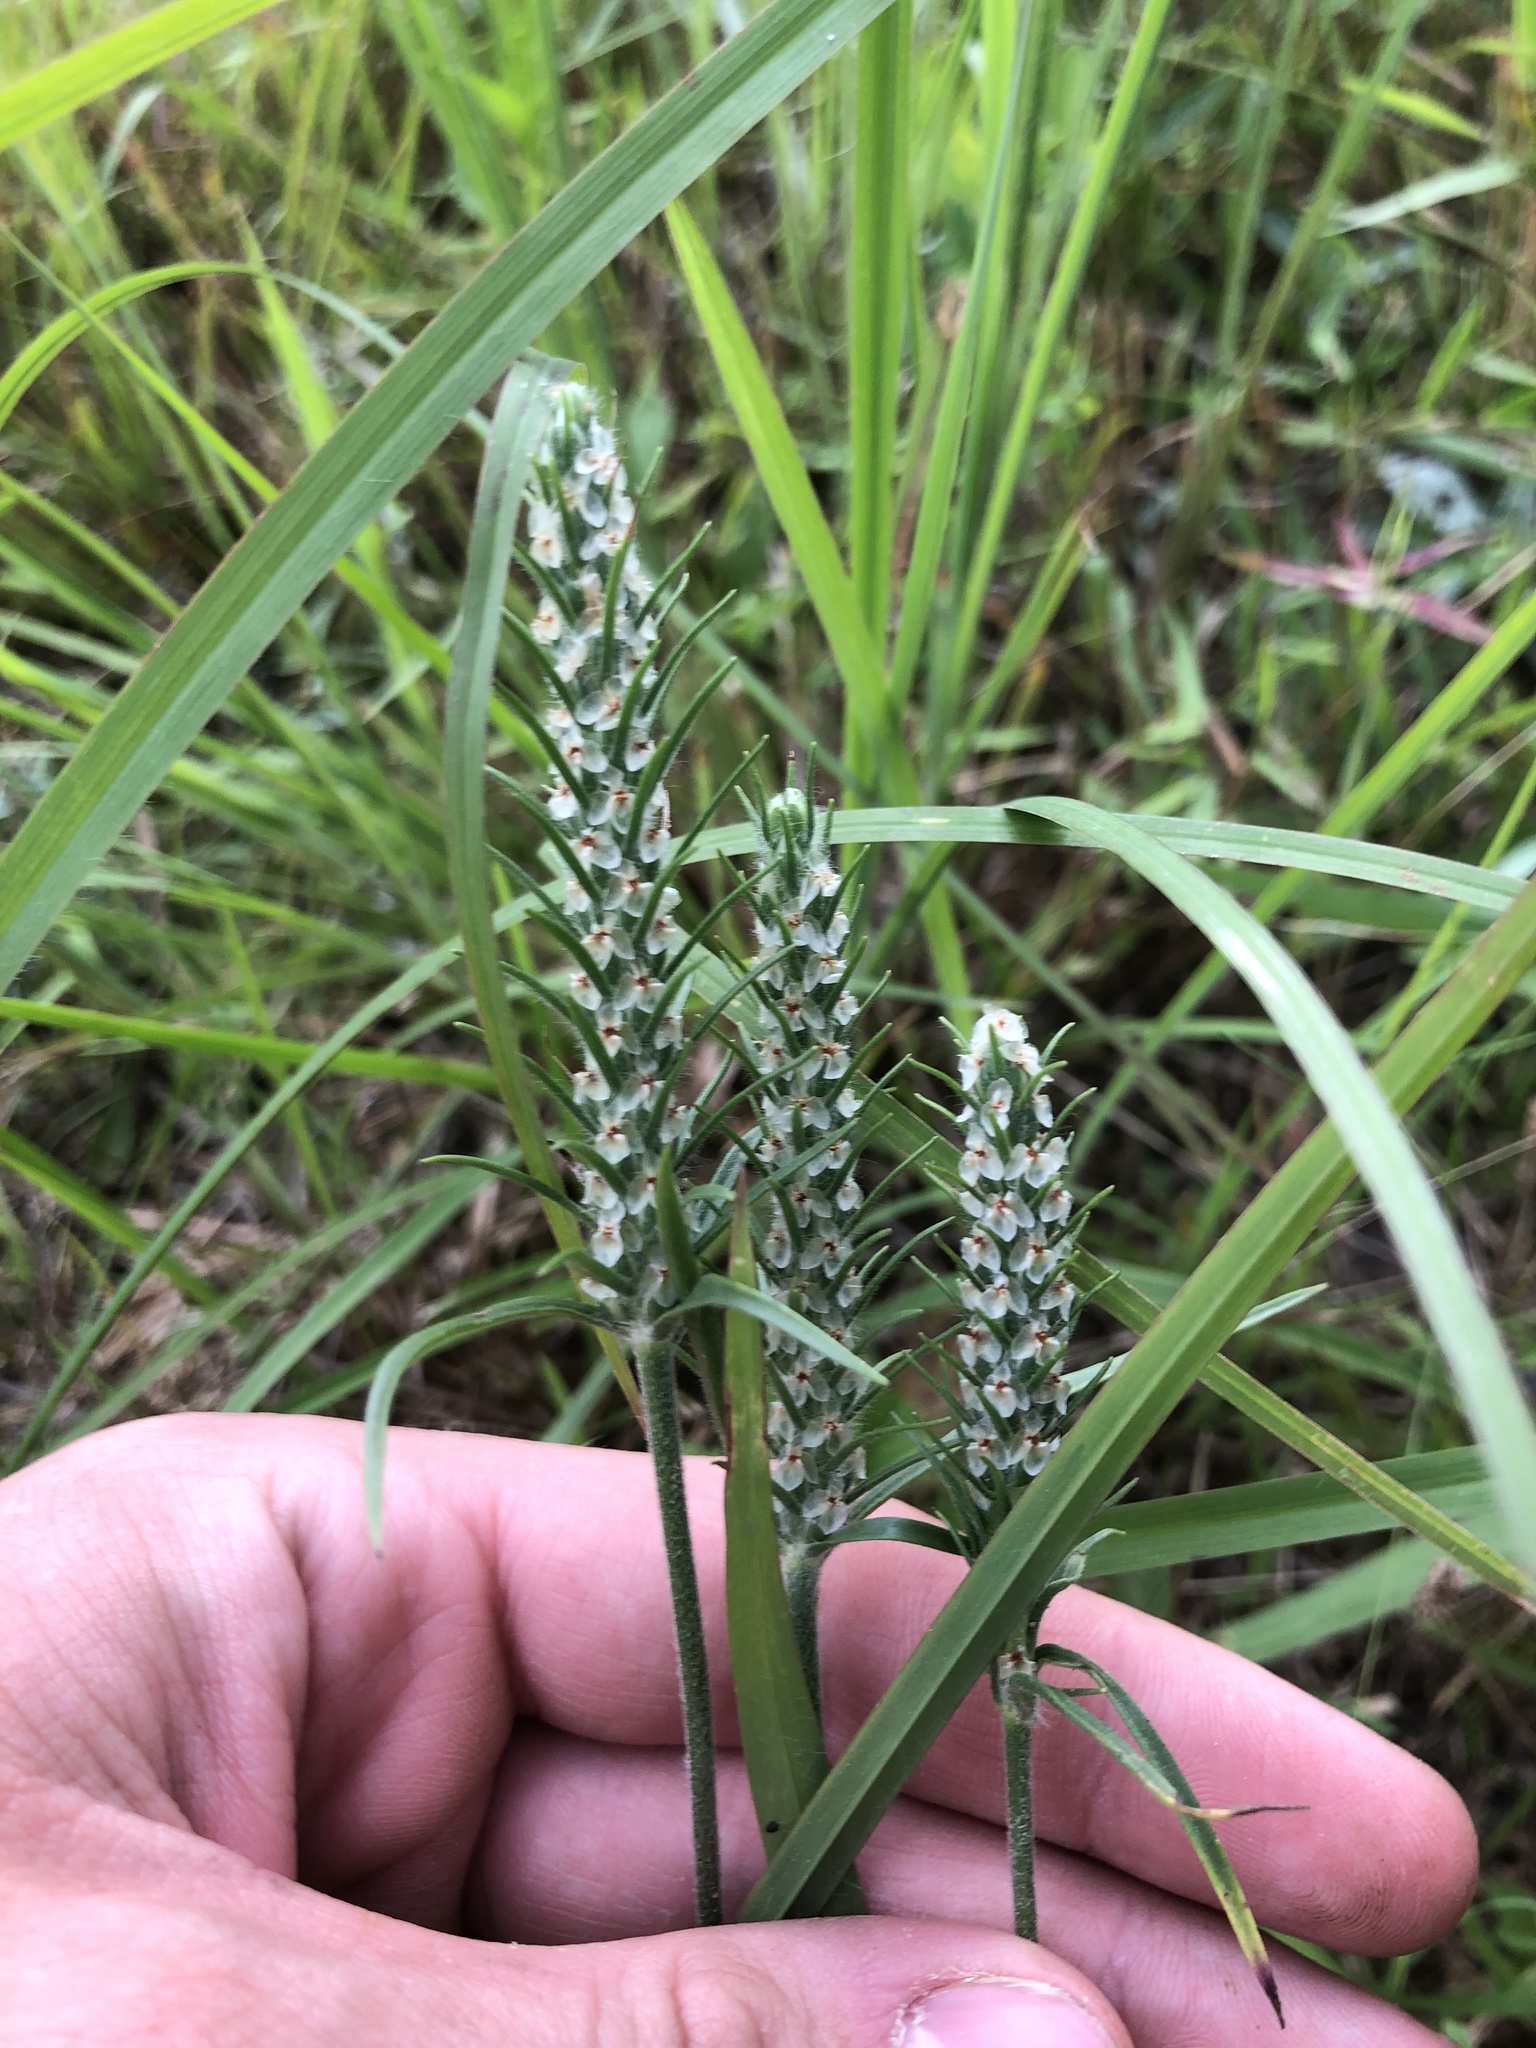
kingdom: Plantae
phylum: Tracheophyta
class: Magnoliopsida
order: Lamiales
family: Plantaginaceae
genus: Plantago
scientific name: Plantago aristata
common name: Bracted plantain
